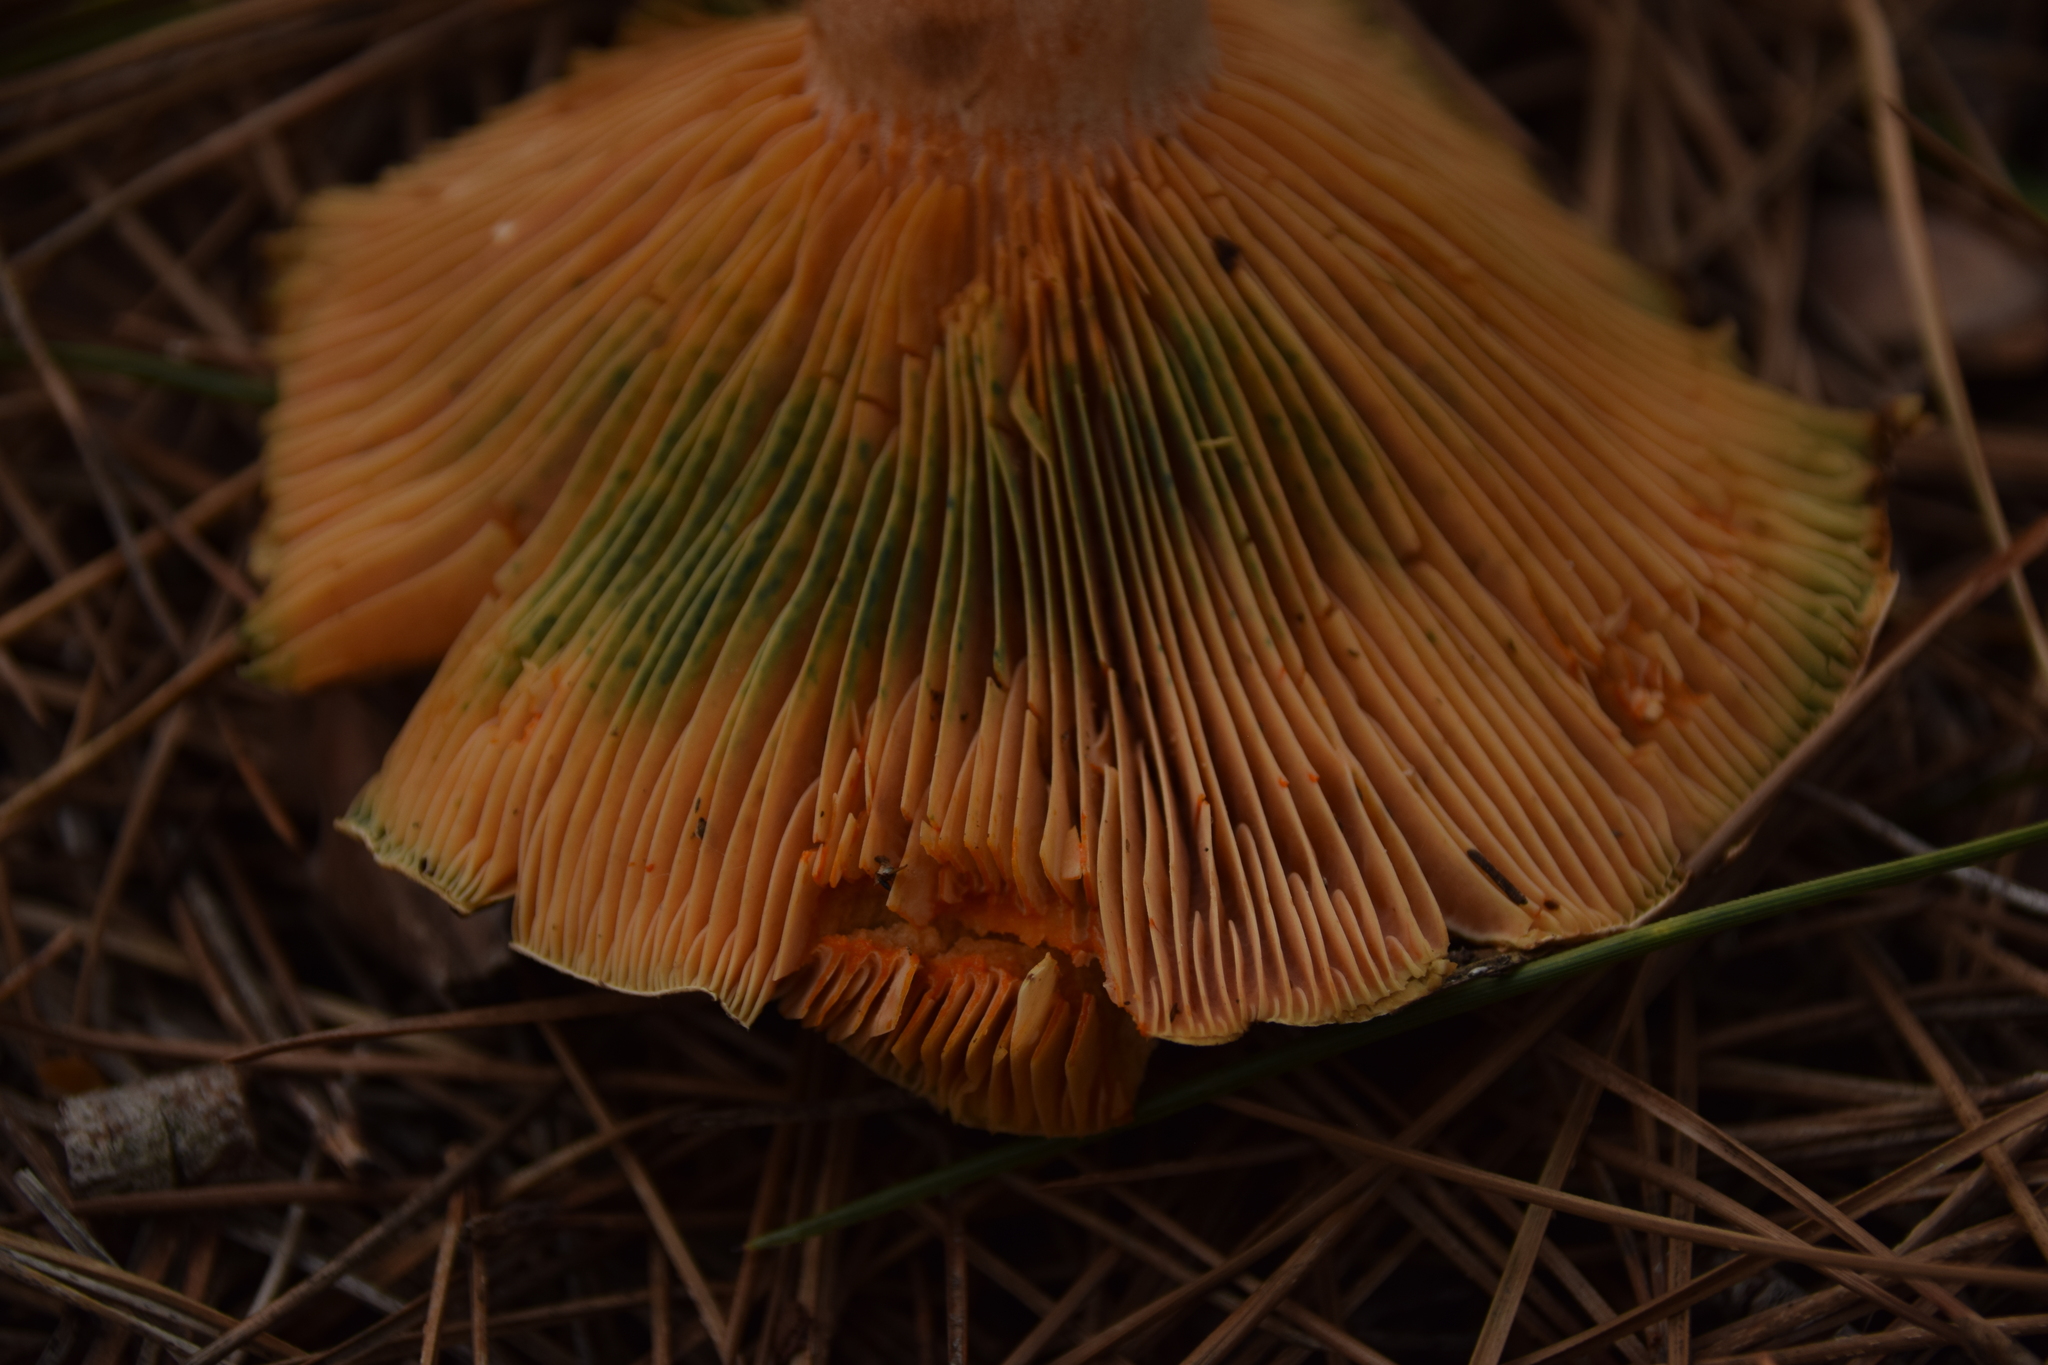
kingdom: Fungi
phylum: Basidiomycota
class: Agaricomycetes
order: Russulales
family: Russulaceae
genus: Lactarius
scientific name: Lactarius deliciosus
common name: Saffron milk-cap
